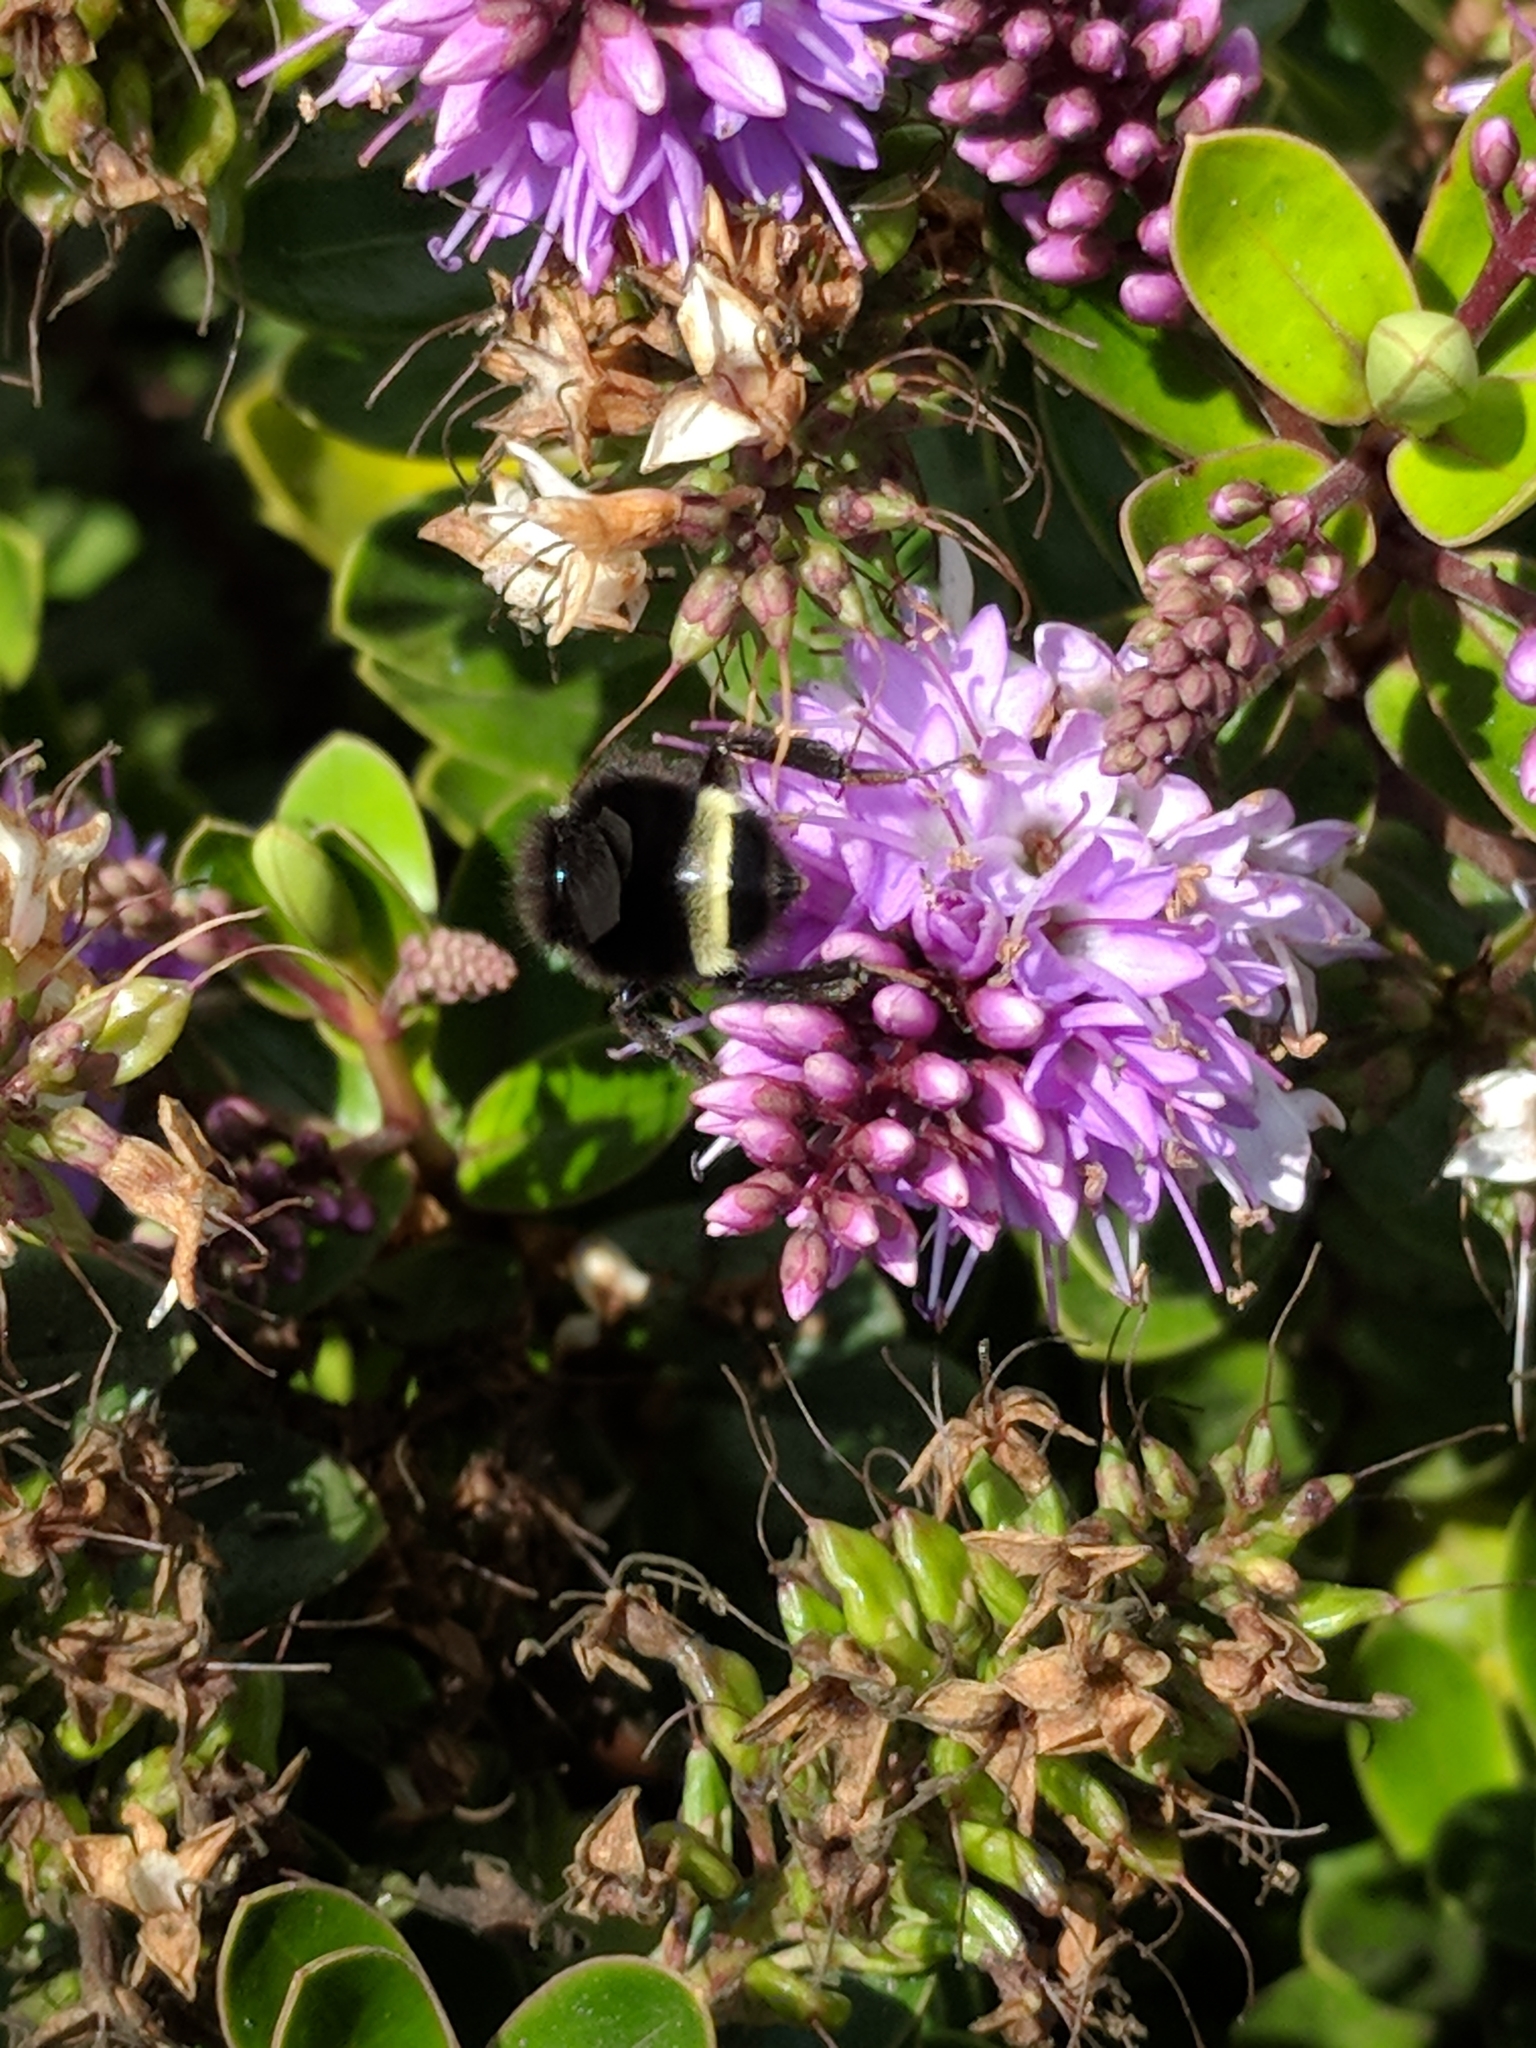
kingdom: Animalia
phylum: Arthropoda
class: Insecta
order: Hymenoptera
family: Apidae
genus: Pyrobombus
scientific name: Pyrobombus
